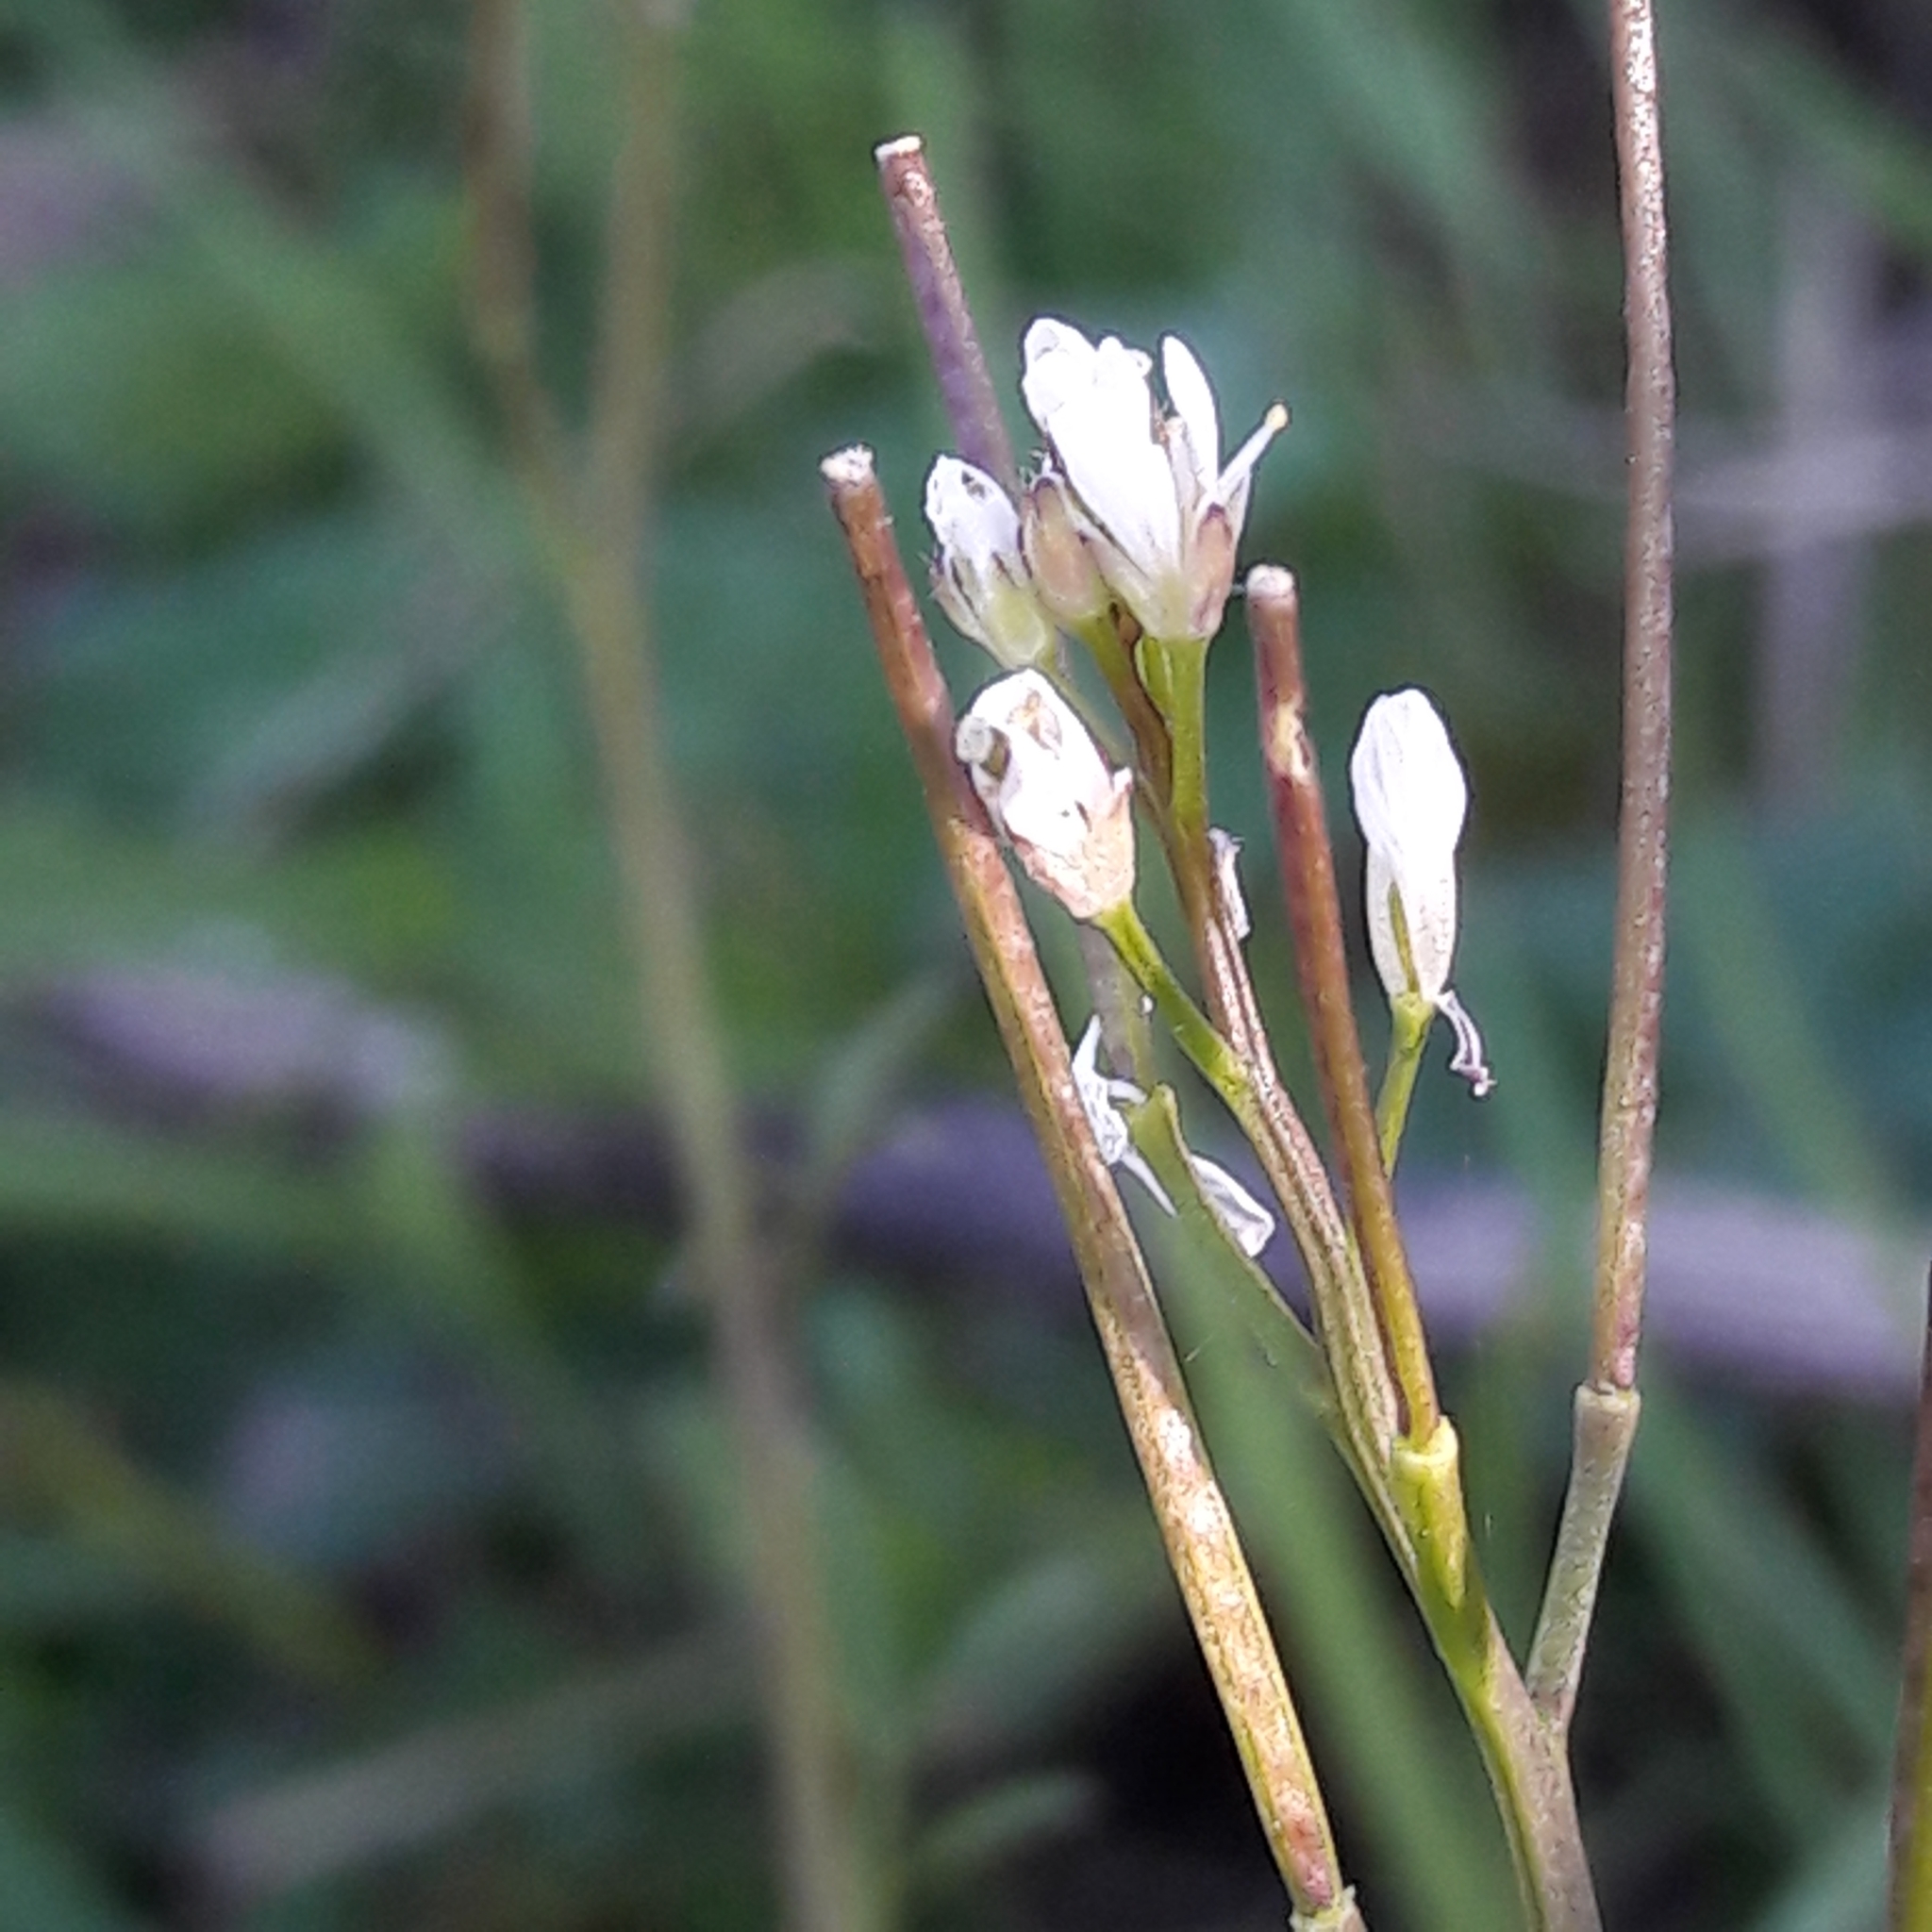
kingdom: Plantae
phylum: Tracheophyta
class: Magnoliopsida
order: Brassicales
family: Brassicaceae
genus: Cardamine
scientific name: Cardamine hirsuta
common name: Hairy bittercress
